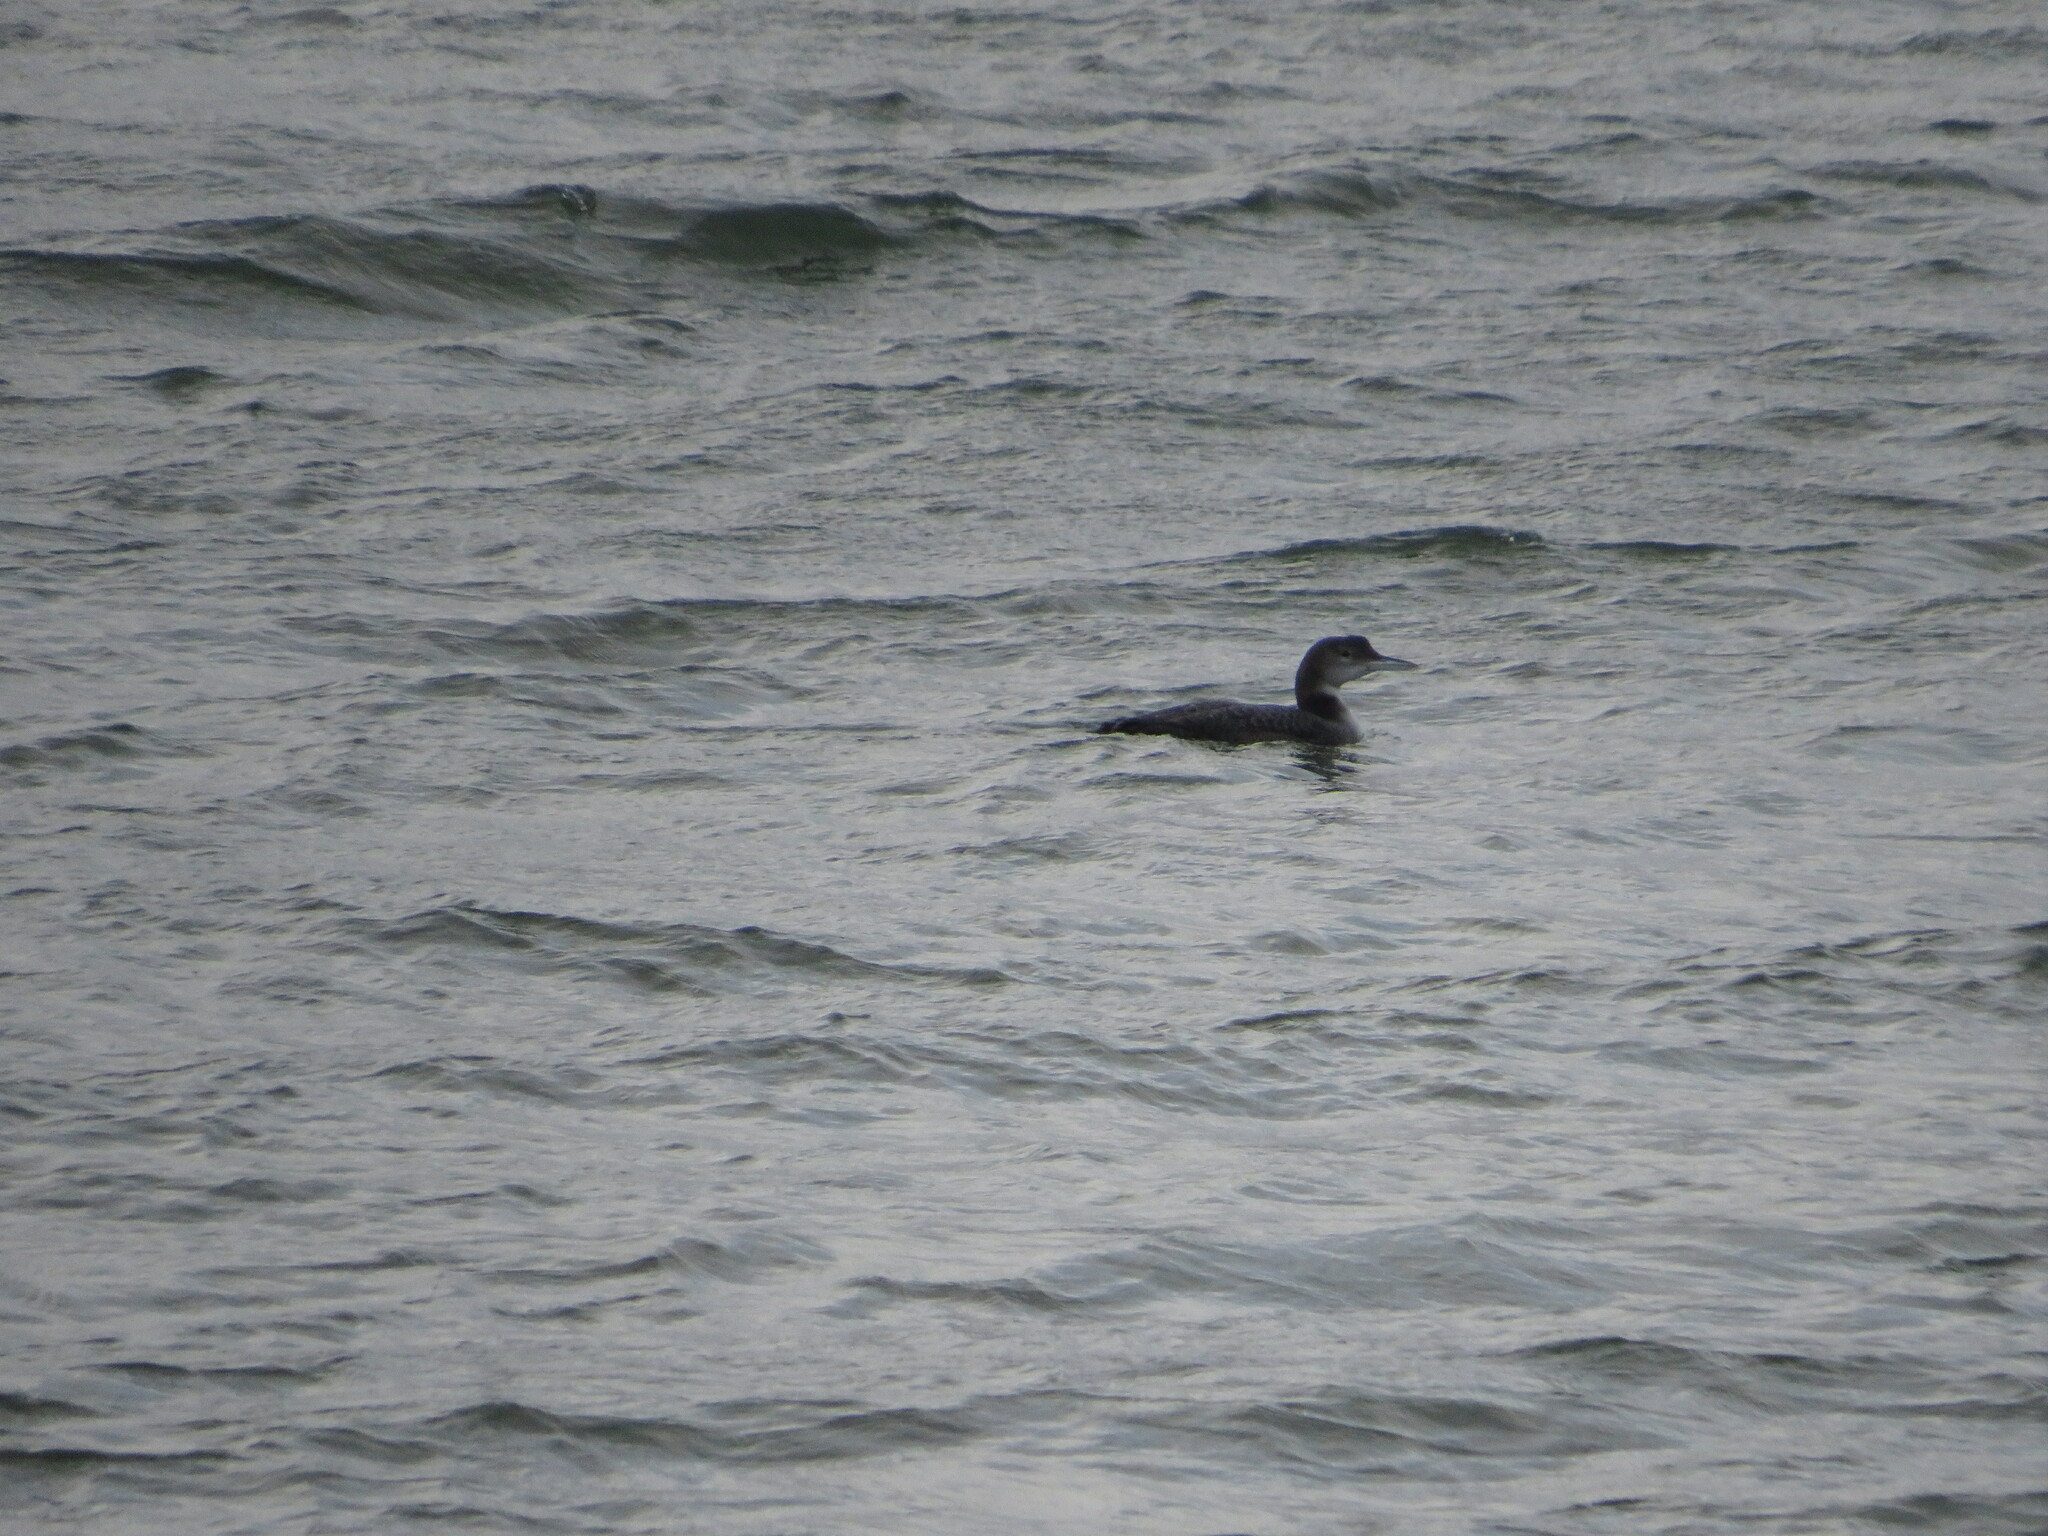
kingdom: Animalia
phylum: Chordata
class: Aves
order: Gaviiformes
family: Gaviidae
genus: Gavia
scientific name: Gavia immer
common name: Common loon
